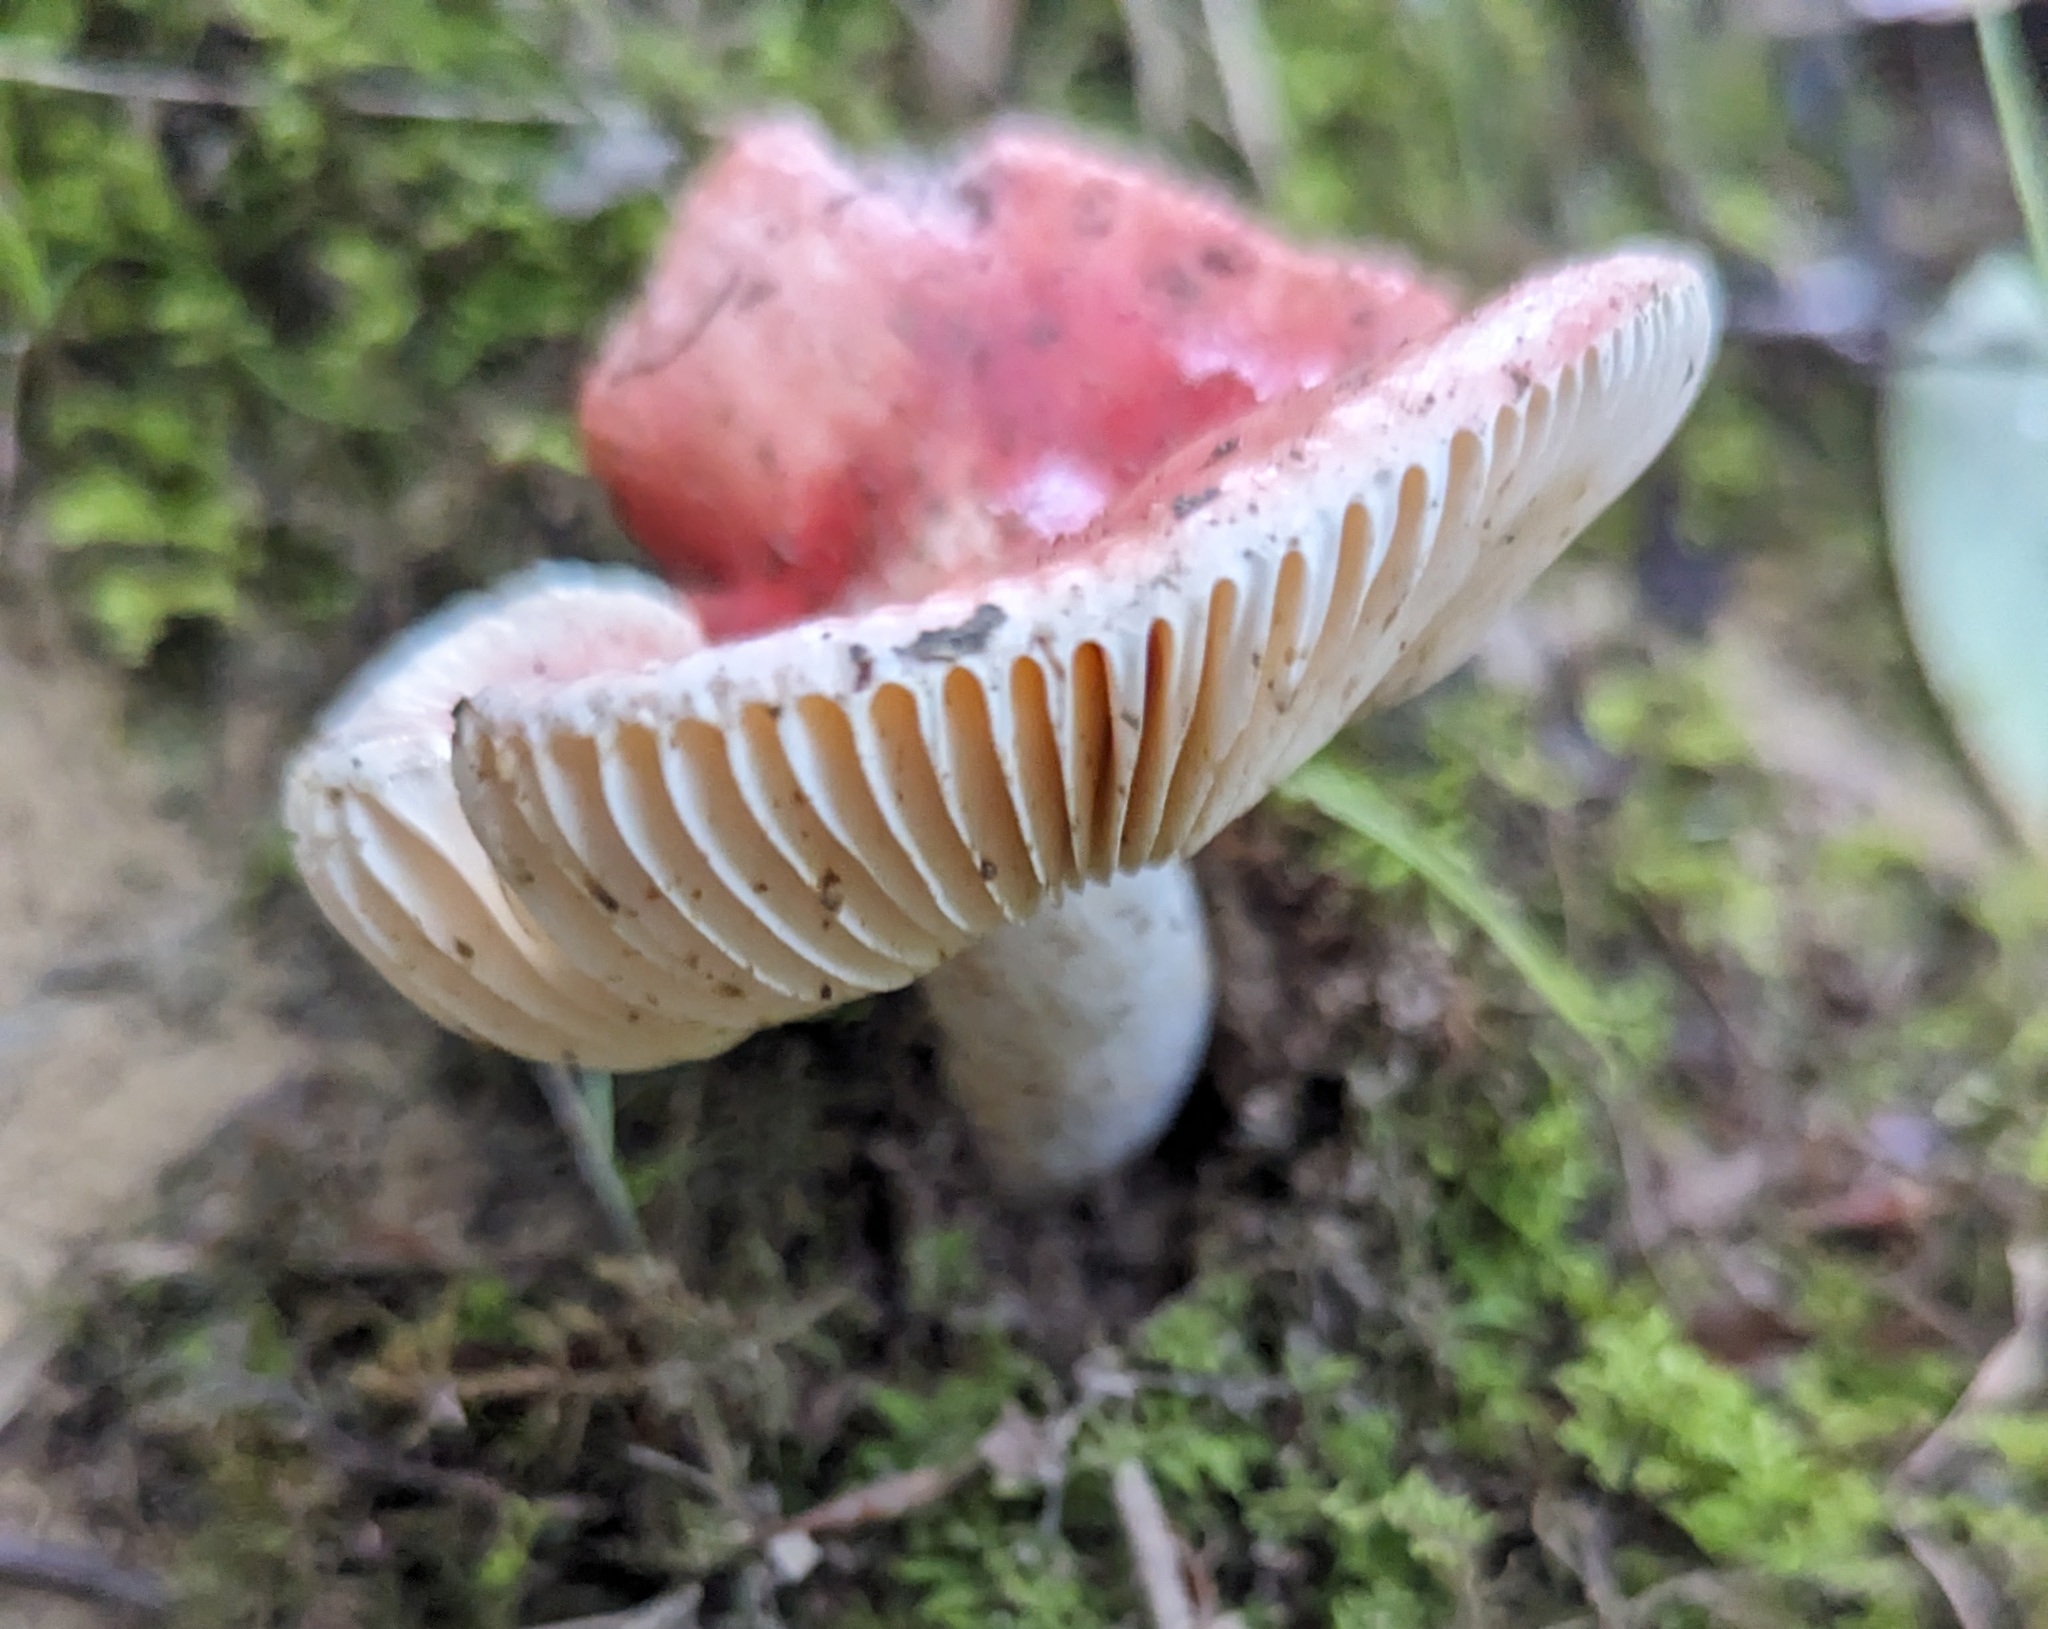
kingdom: Fungi
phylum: Basidiomycota
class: Agaricomycetes
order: Russulales
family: Russulaceae
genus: Russula
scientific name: Russula
